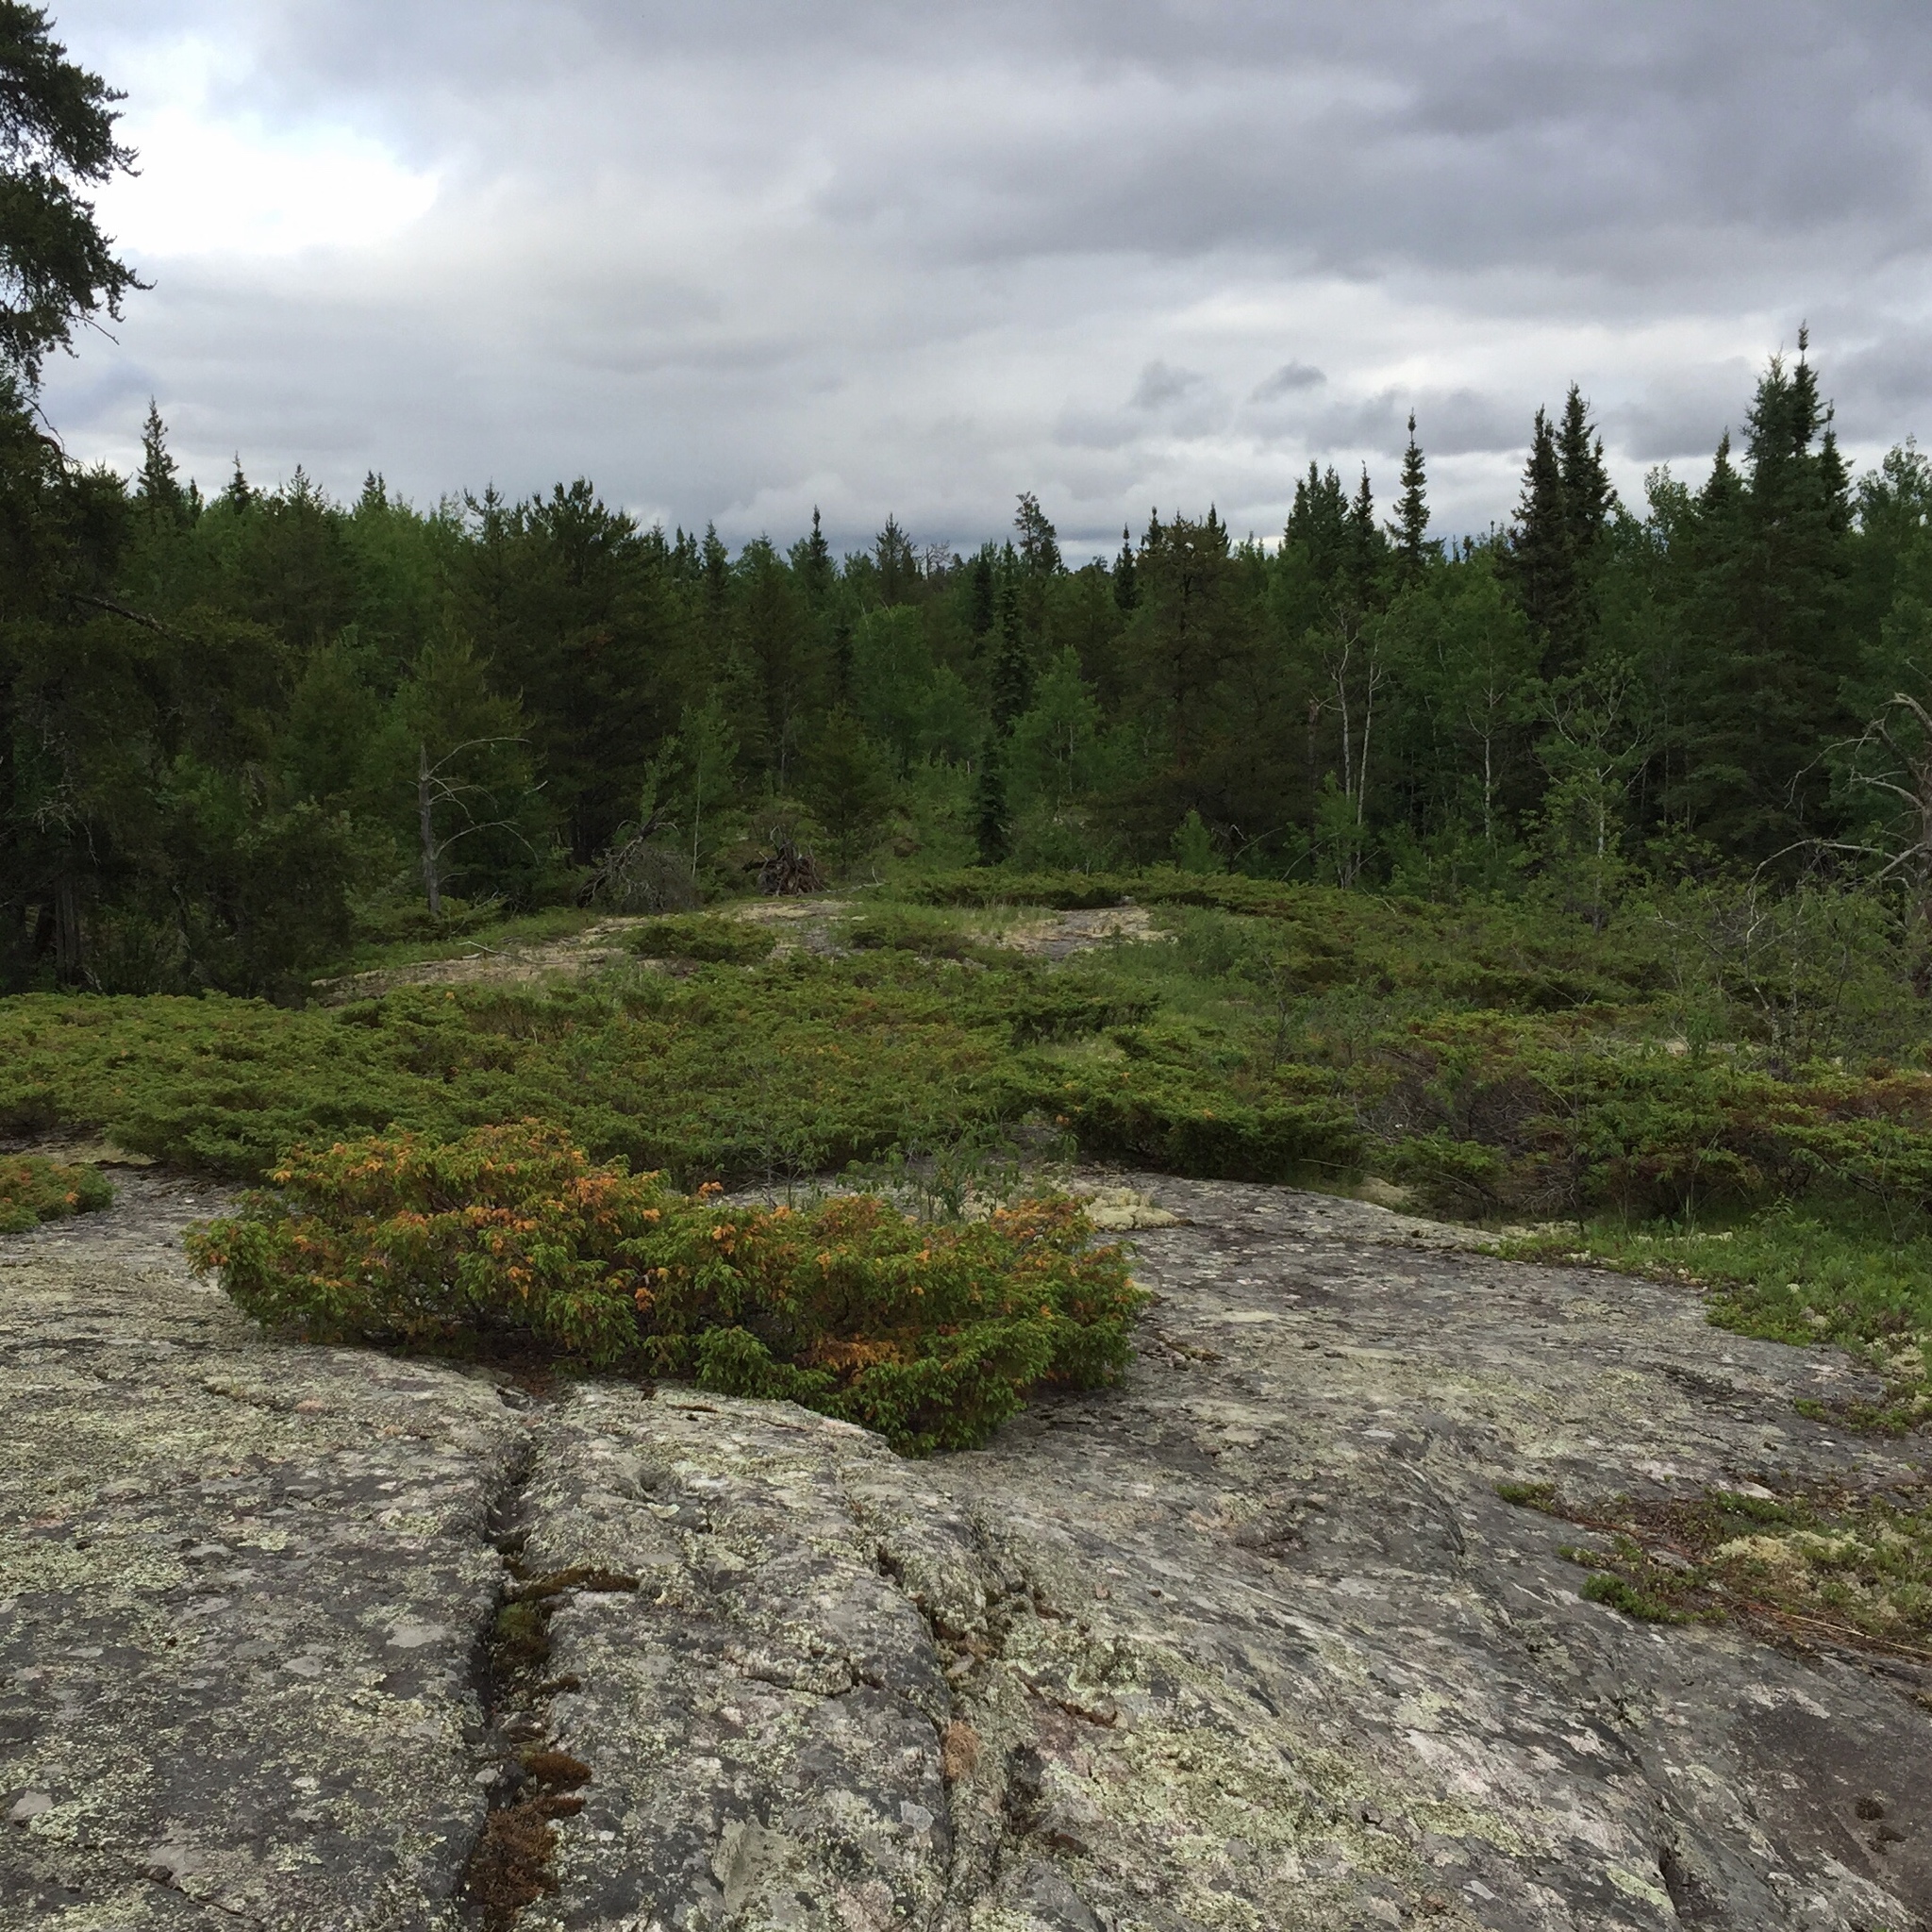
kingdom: Plantae
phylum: Tracheophyta
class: Pinopsida
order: Pinales
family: Cupressaceae
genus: Juniperus
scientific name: Juniperus communis
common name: Common juniper
